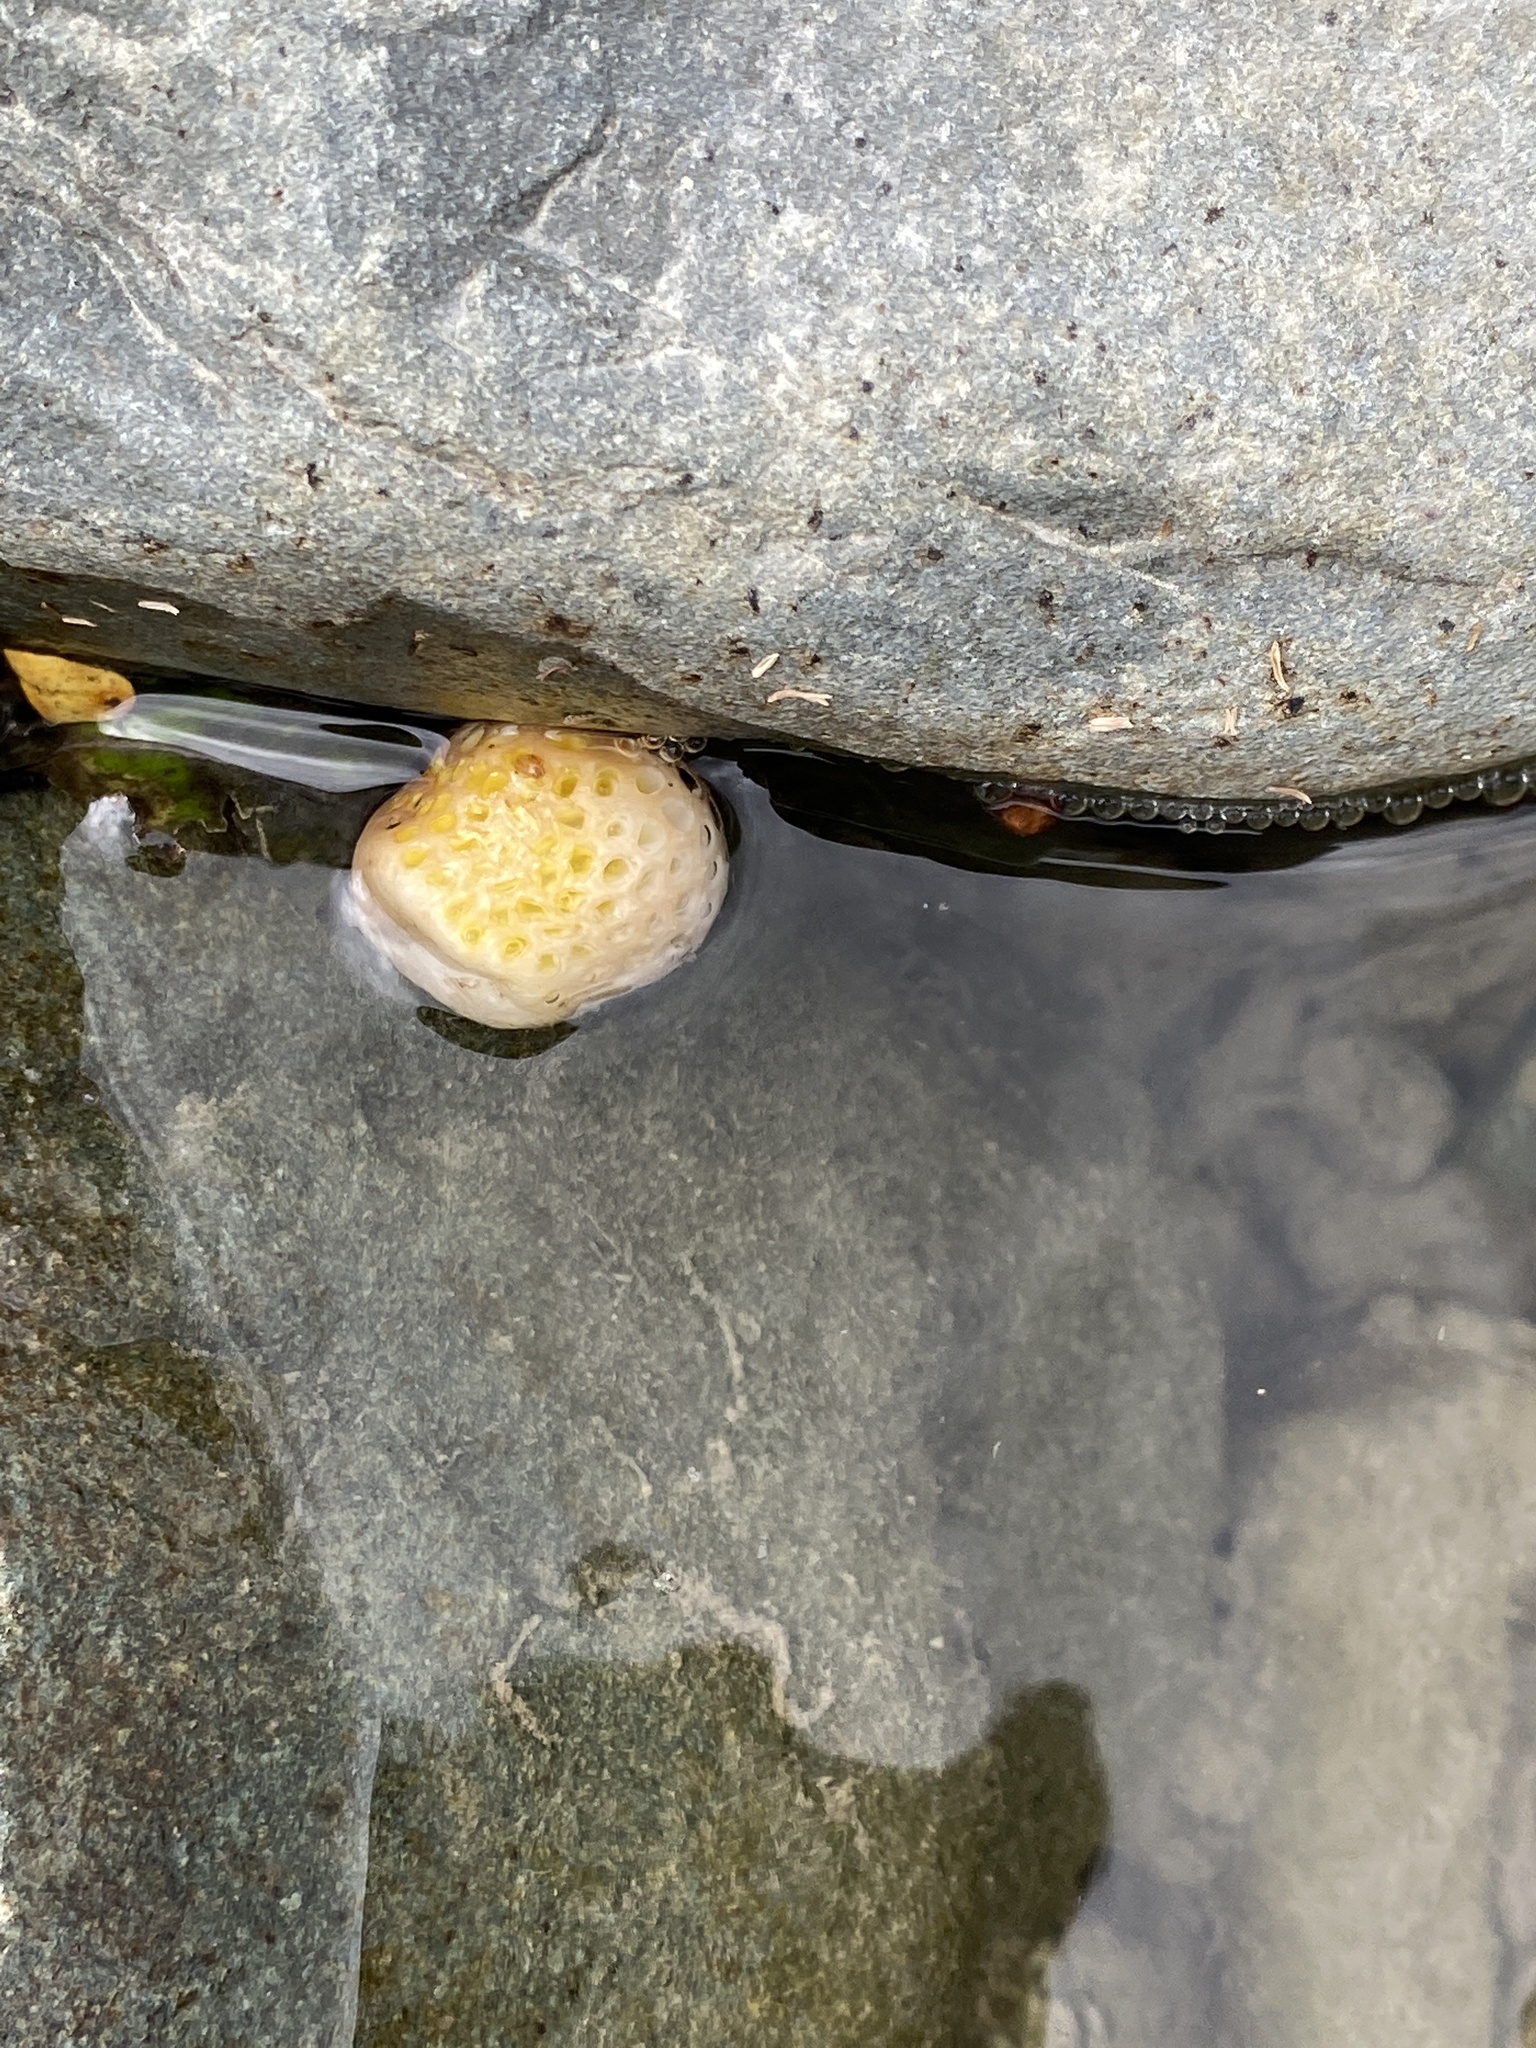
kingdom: Fungi
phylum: Ascomycota
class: Leotiomycetes
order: Cyttariales
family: Cyttariaceae
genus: Cyttaria
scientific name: Cyttaria gunnii
